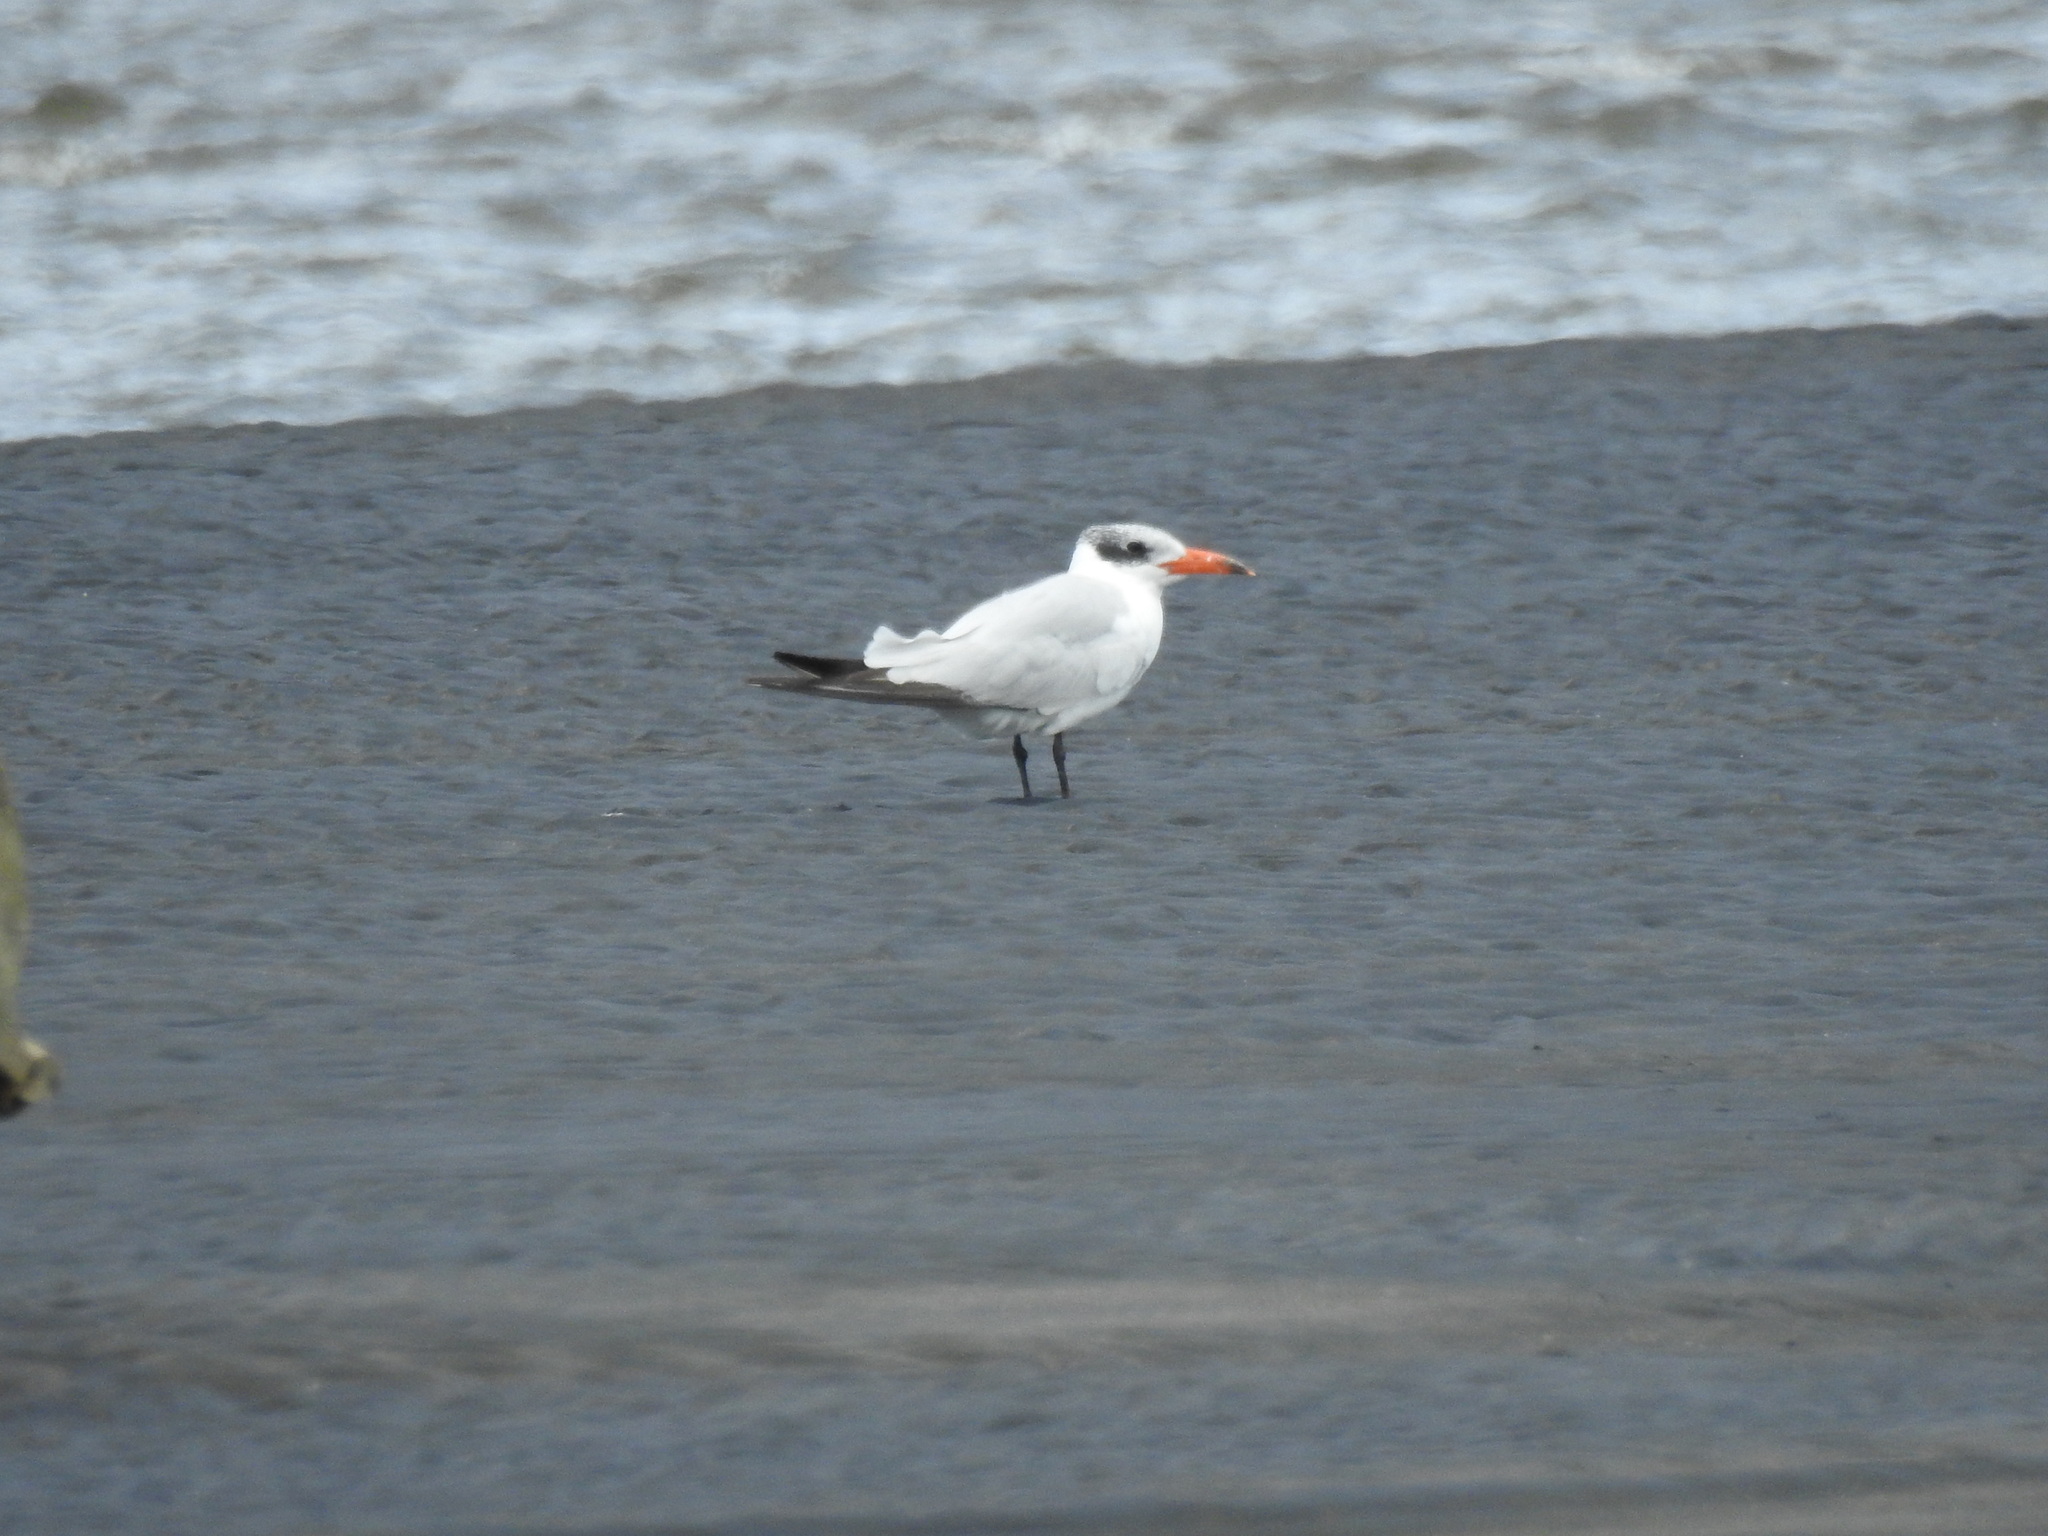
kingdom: Animalia
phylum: Chordata
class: Aves
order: Charadriiformes
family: Laridae
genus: Hydroprogne
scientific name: Hydroprogne caspia
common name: Caspian tern
